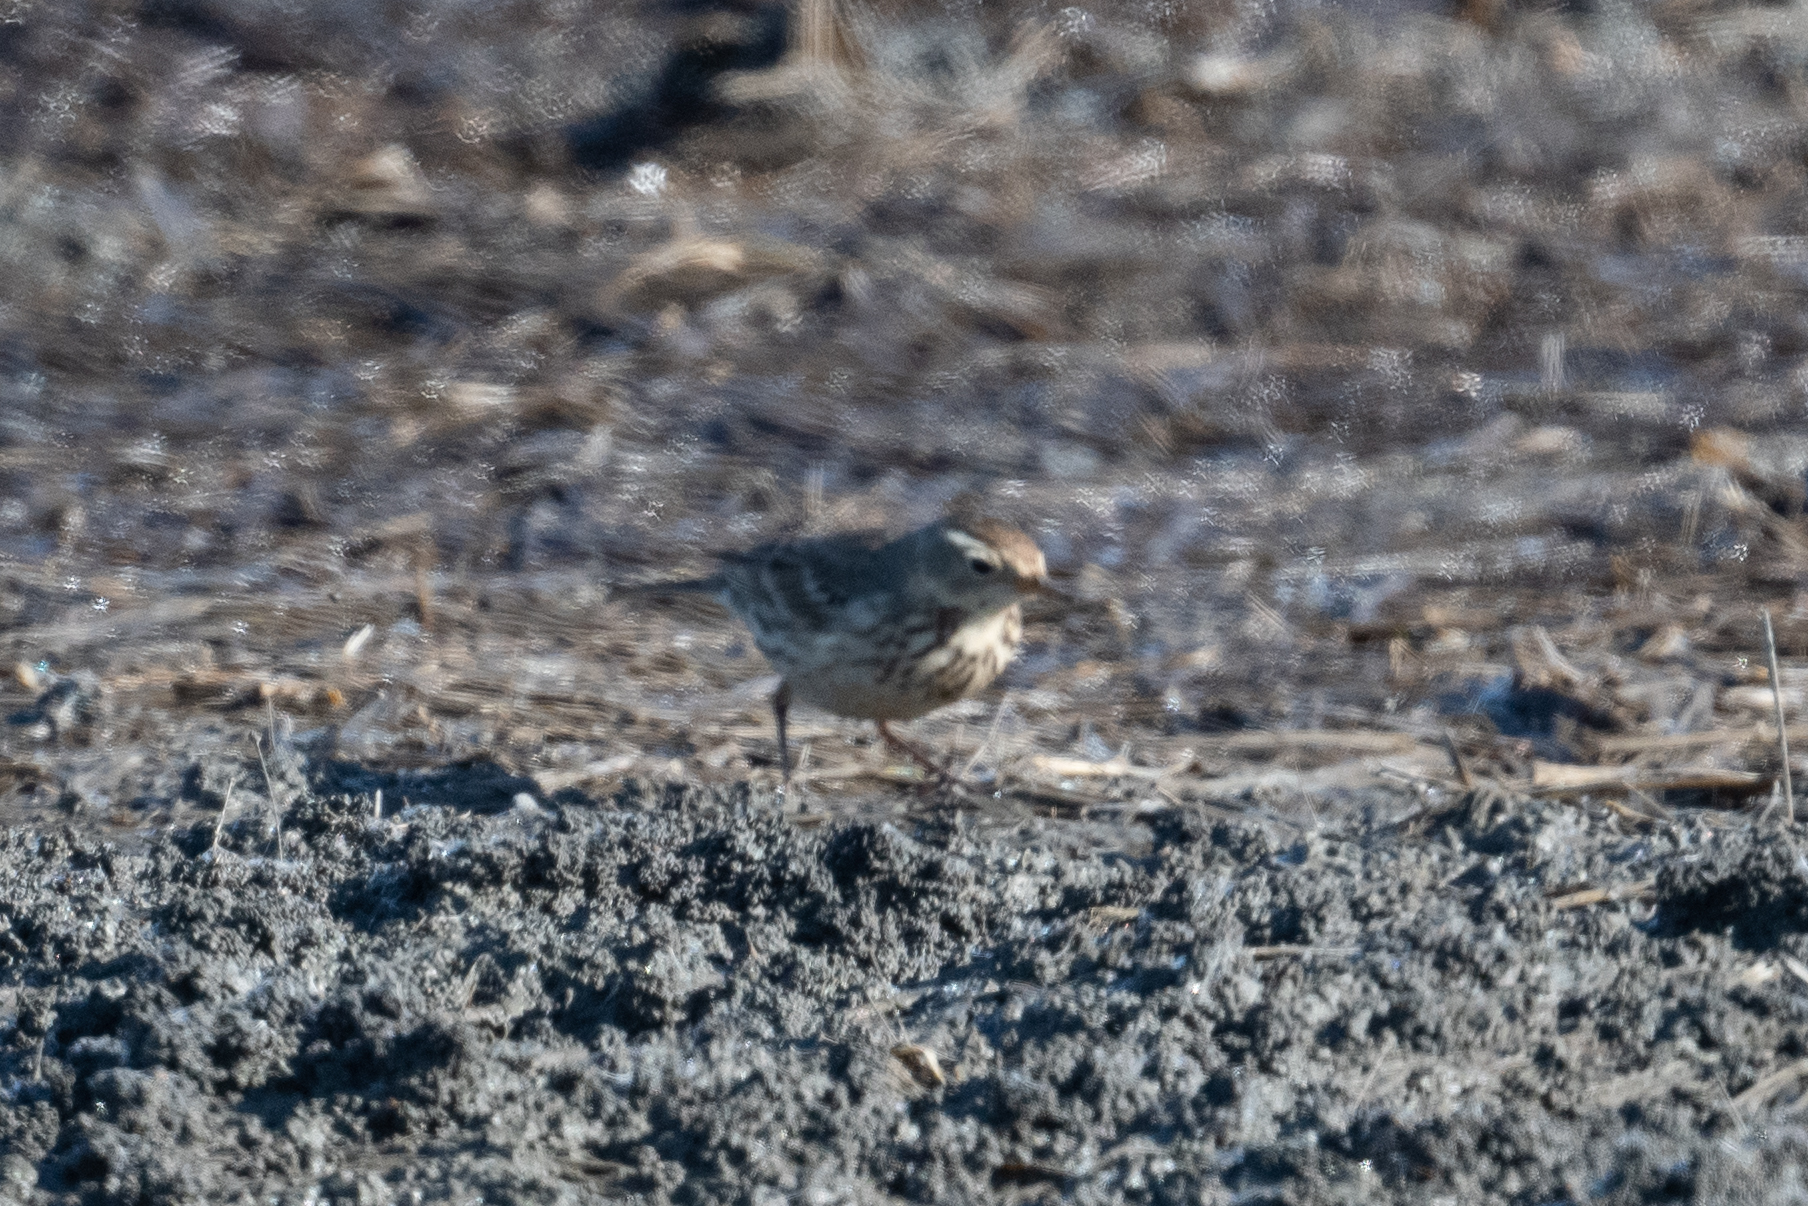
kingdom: Animalia
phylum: Chordata
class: Aves
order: Passeriformes
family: Motacillidae
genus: Anthus
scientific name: Anthus rubescens
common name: Buff-bellied pipit
